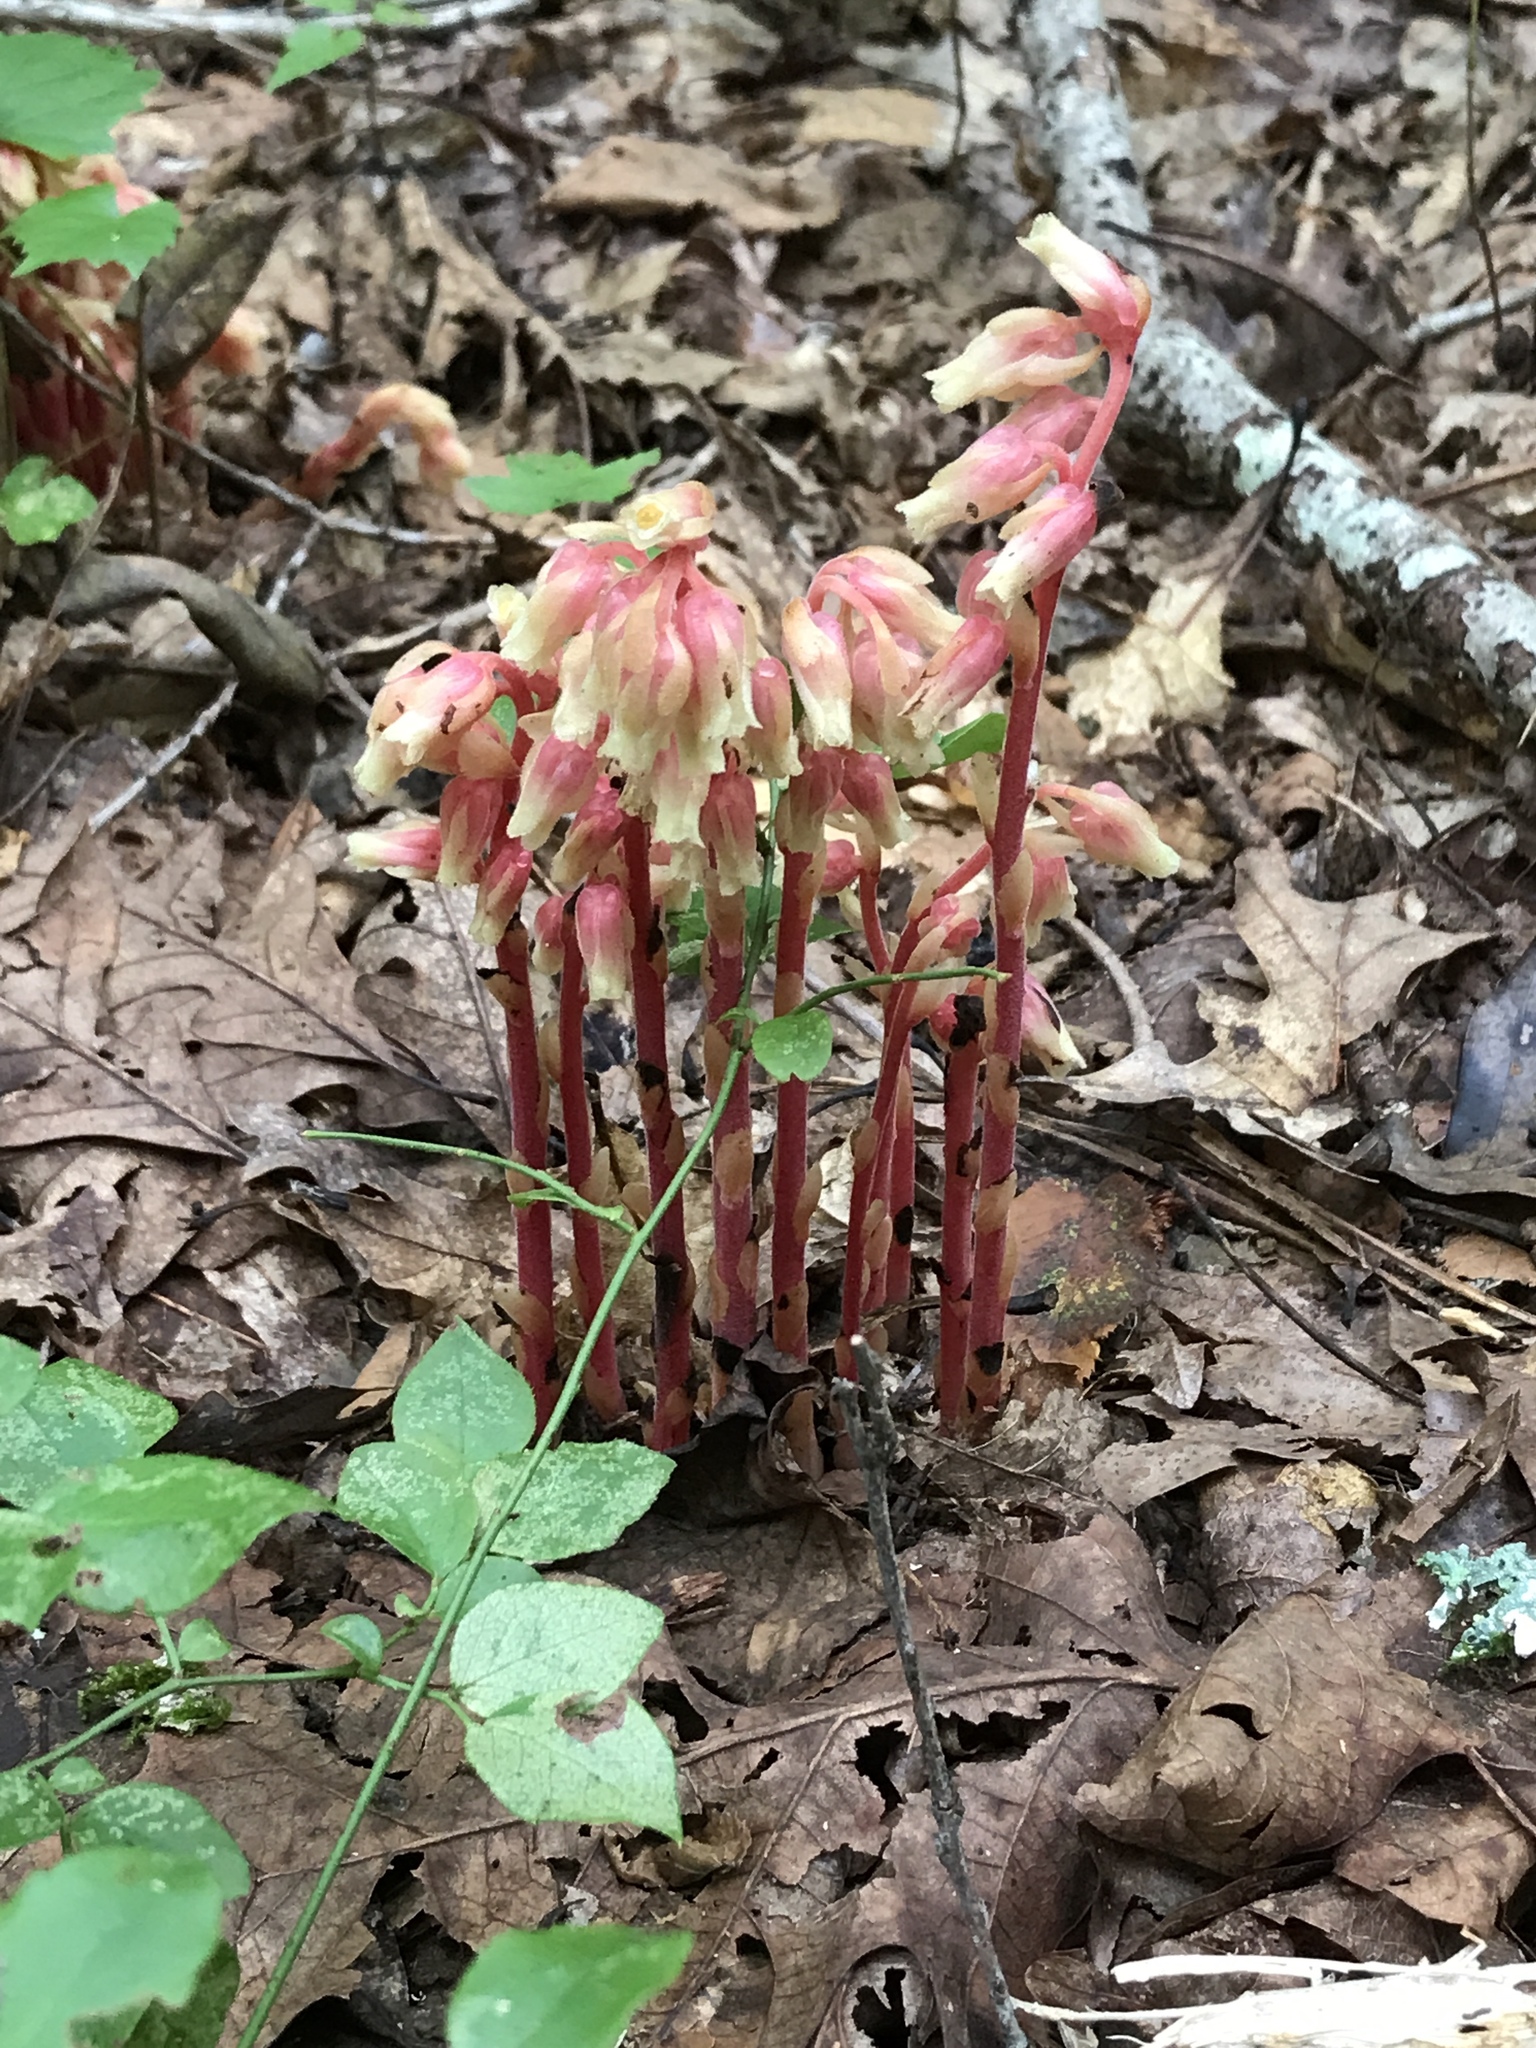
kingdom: Plantae
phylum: Tracheophyta
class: Magnoliopsida
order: Ericales
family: Ericaceae
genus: Hypopitys
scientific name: Hypopitys monotropa
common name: Yellow bird's-nest
